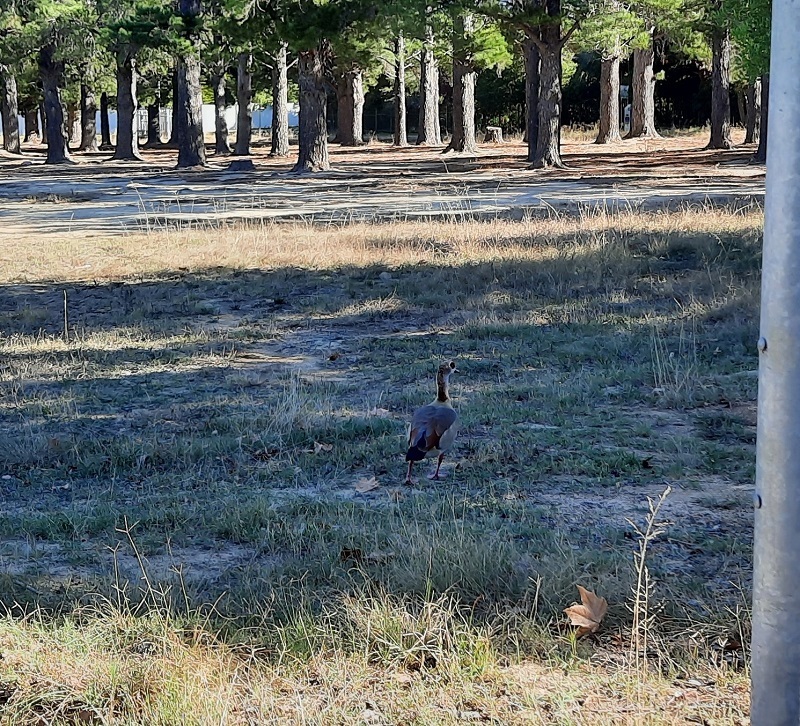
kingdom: Animalia
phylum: Chordata
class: Aves
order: Anseriformes
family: Anatidae
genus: Alopochen
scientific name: Alopochen aegyptiaca
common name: Egyptian goose
